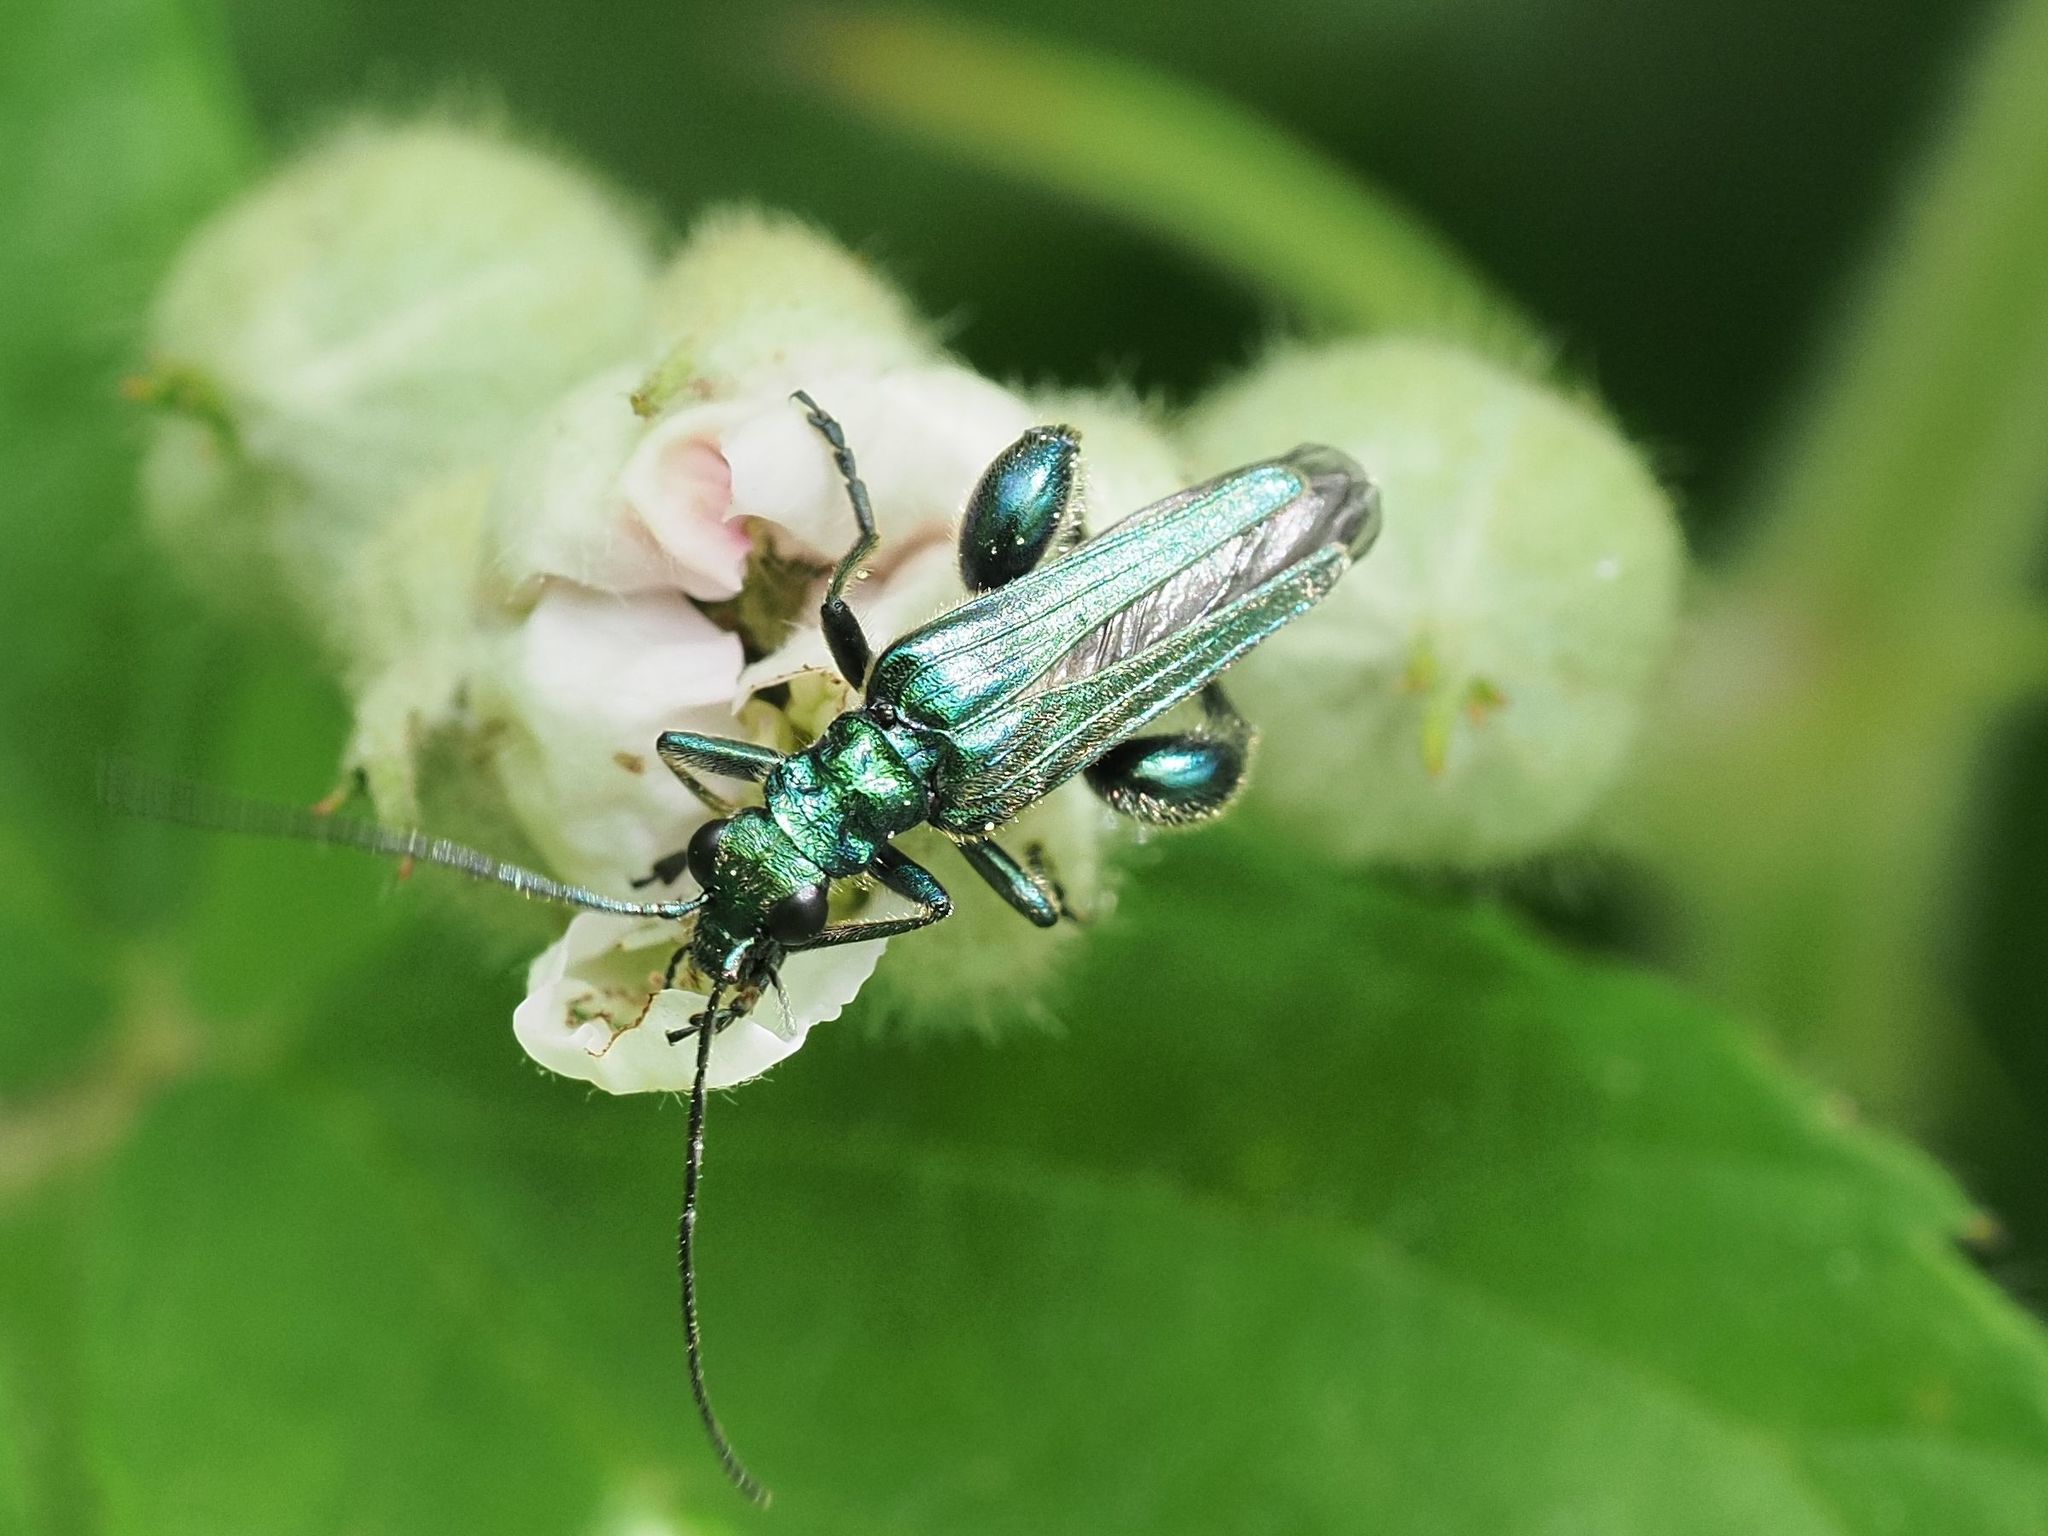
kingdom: Animalia
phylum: Arthropoda
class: Insecta
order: Coleoptera
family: Oedemeridae
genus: Oedemera
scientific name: Oedemera nobilis
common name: Swollen-thighed beetle
